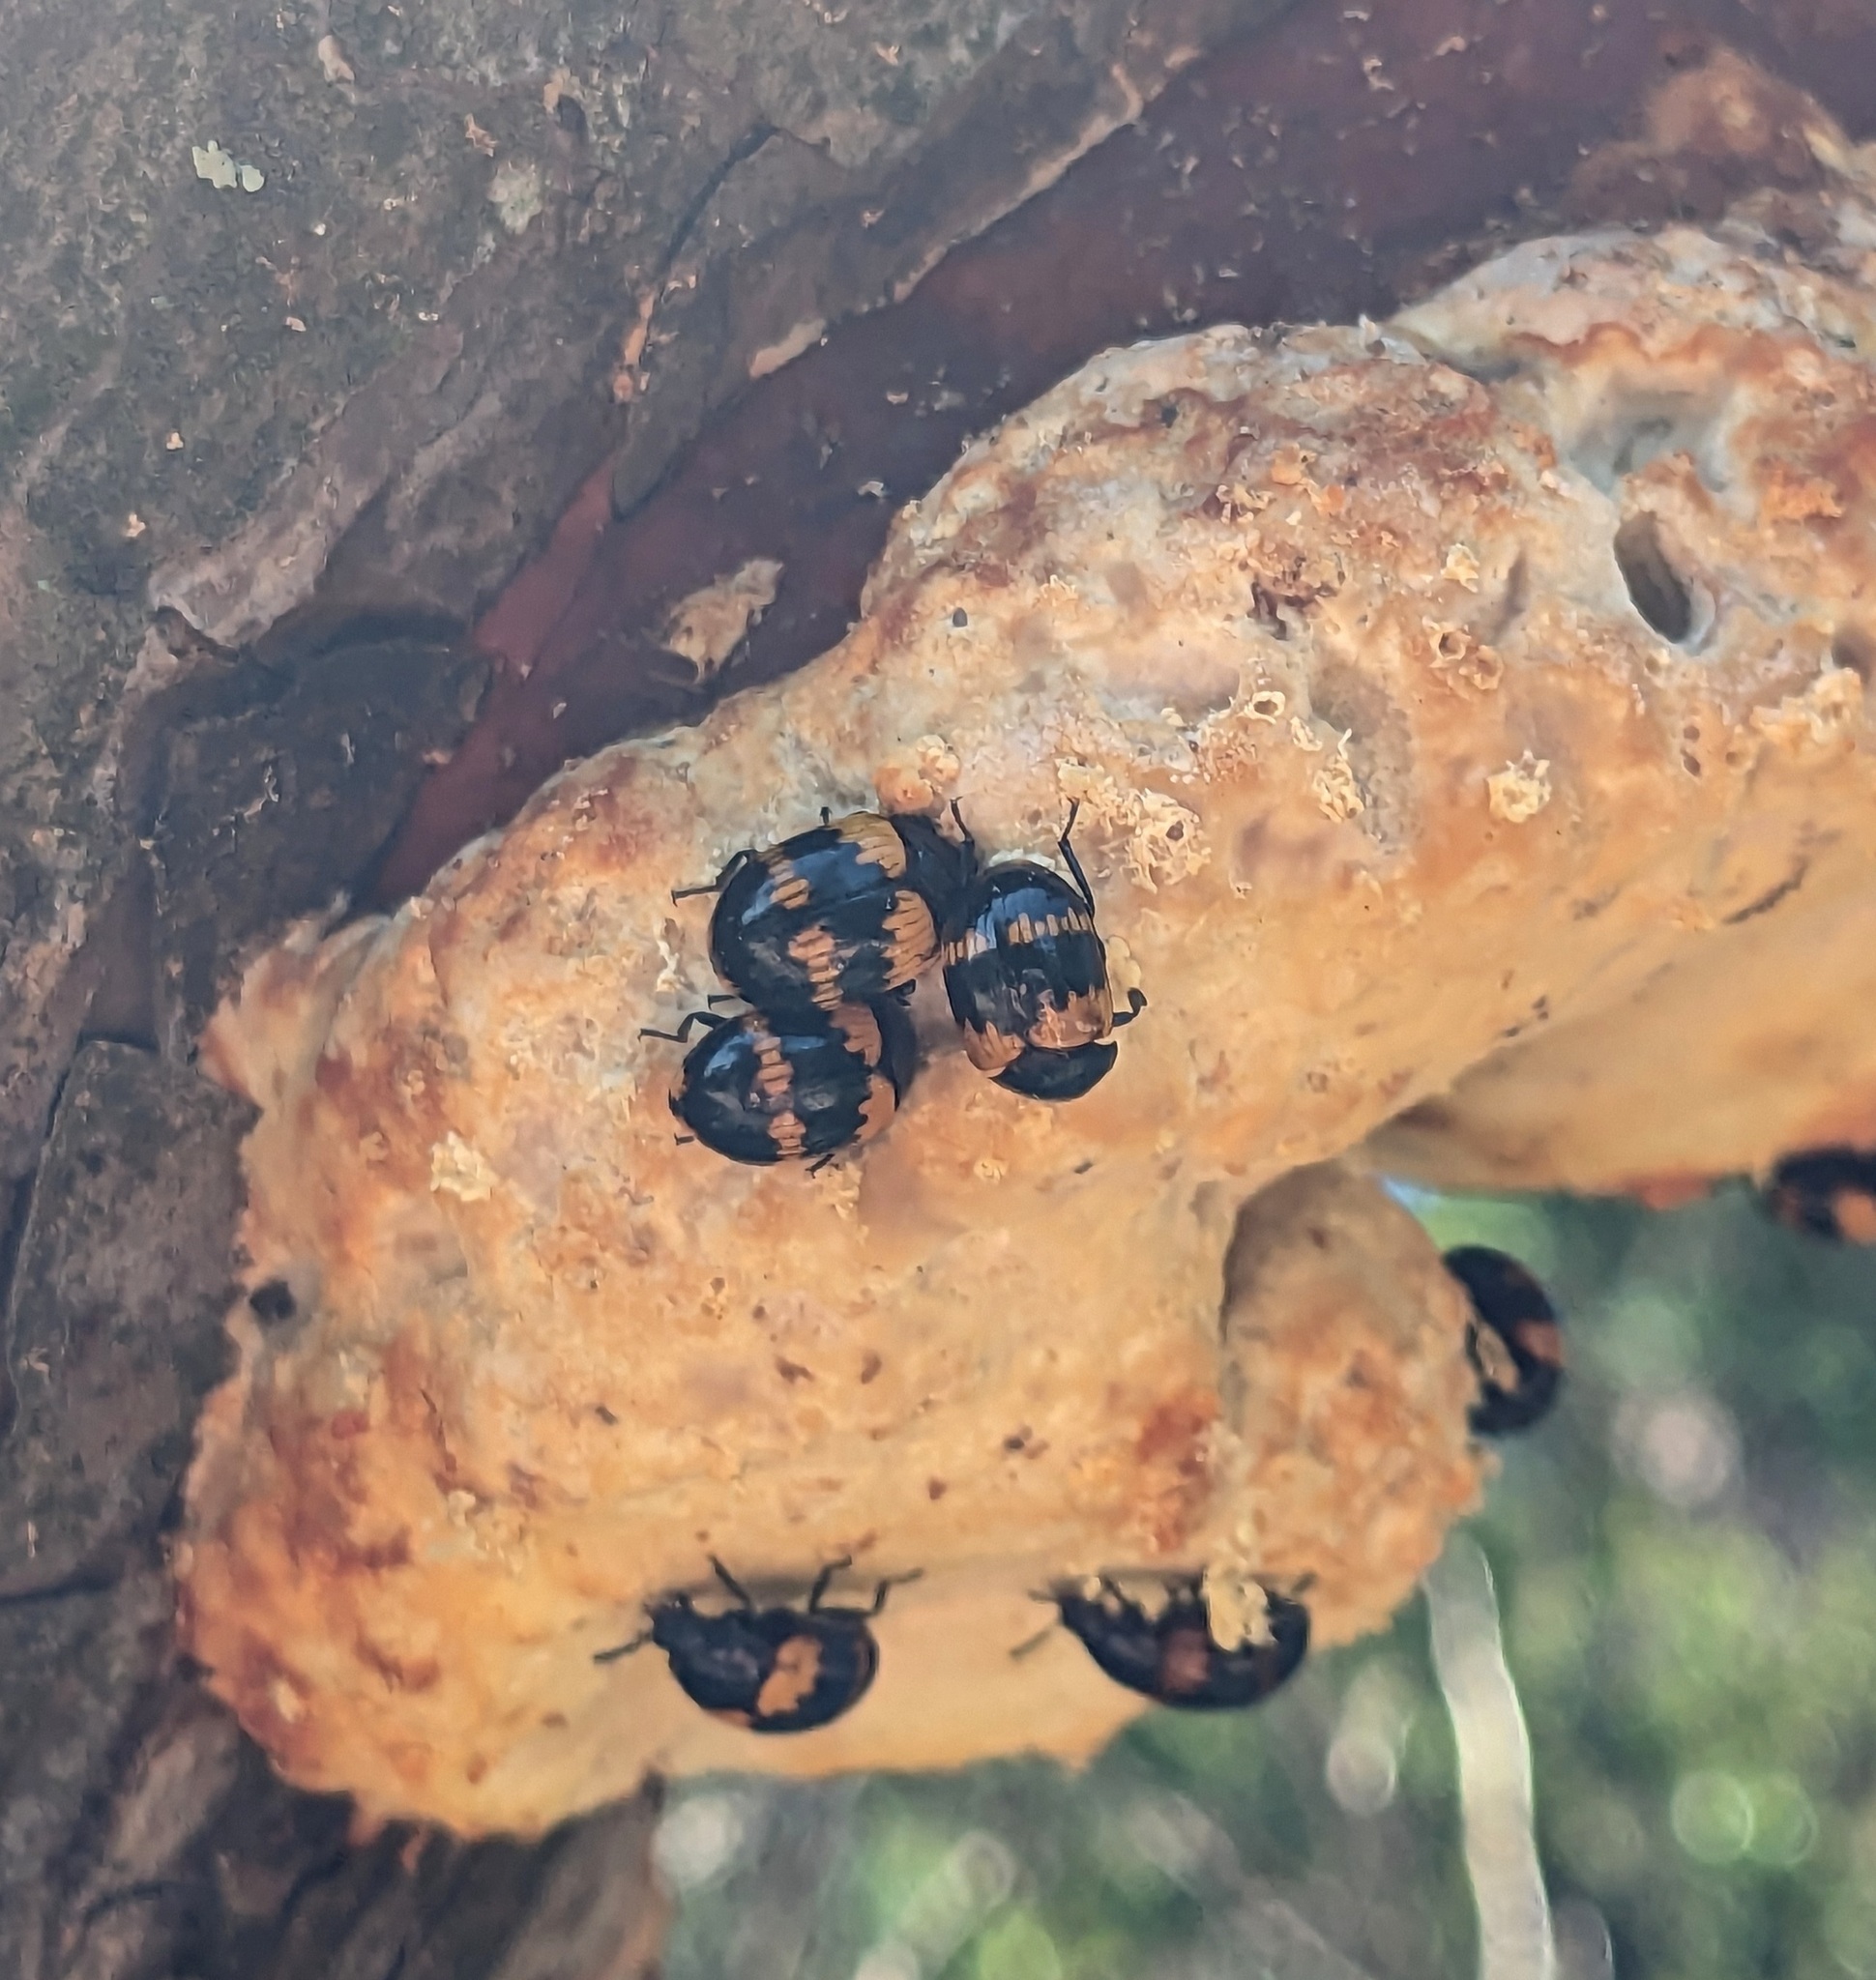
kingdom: Animalia
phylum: Arthropoda
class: Insecta
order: Coleoptera
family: Tenebrionidae
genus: Diaperis
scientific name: Diaperis boleti
